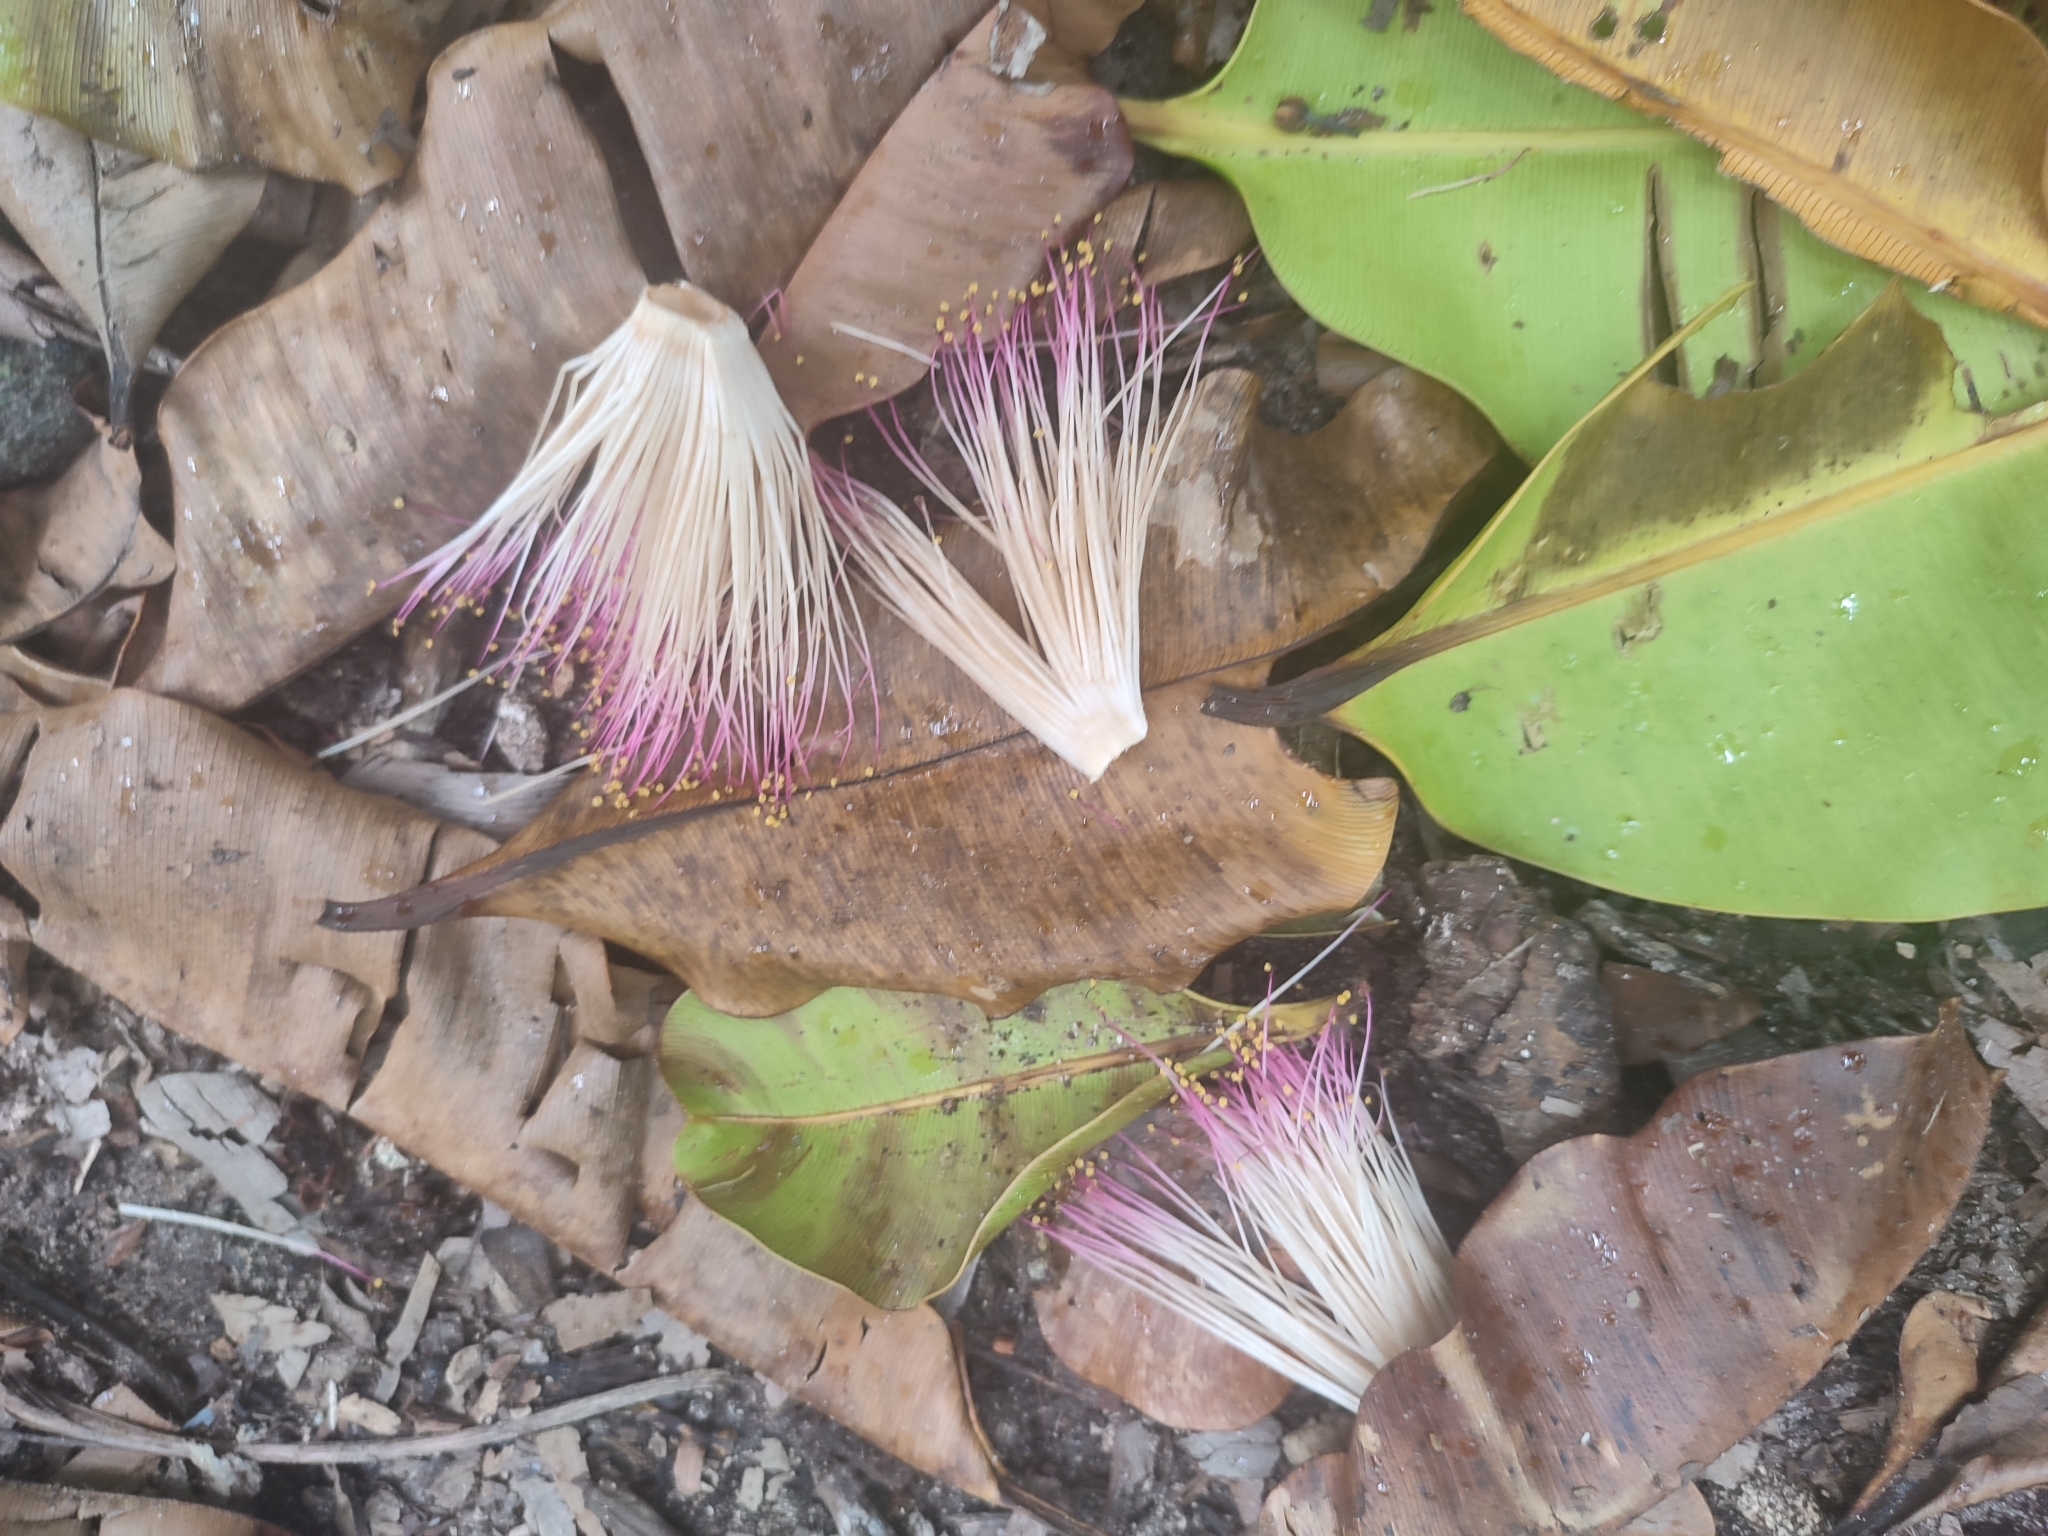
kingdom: Plantae
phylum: Tracheophyta
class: Magnoliopsida
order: Ericales
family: Lecythidaceae
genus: Barringtonia
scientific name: Barringtonia asiatica
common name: Mango-pine
